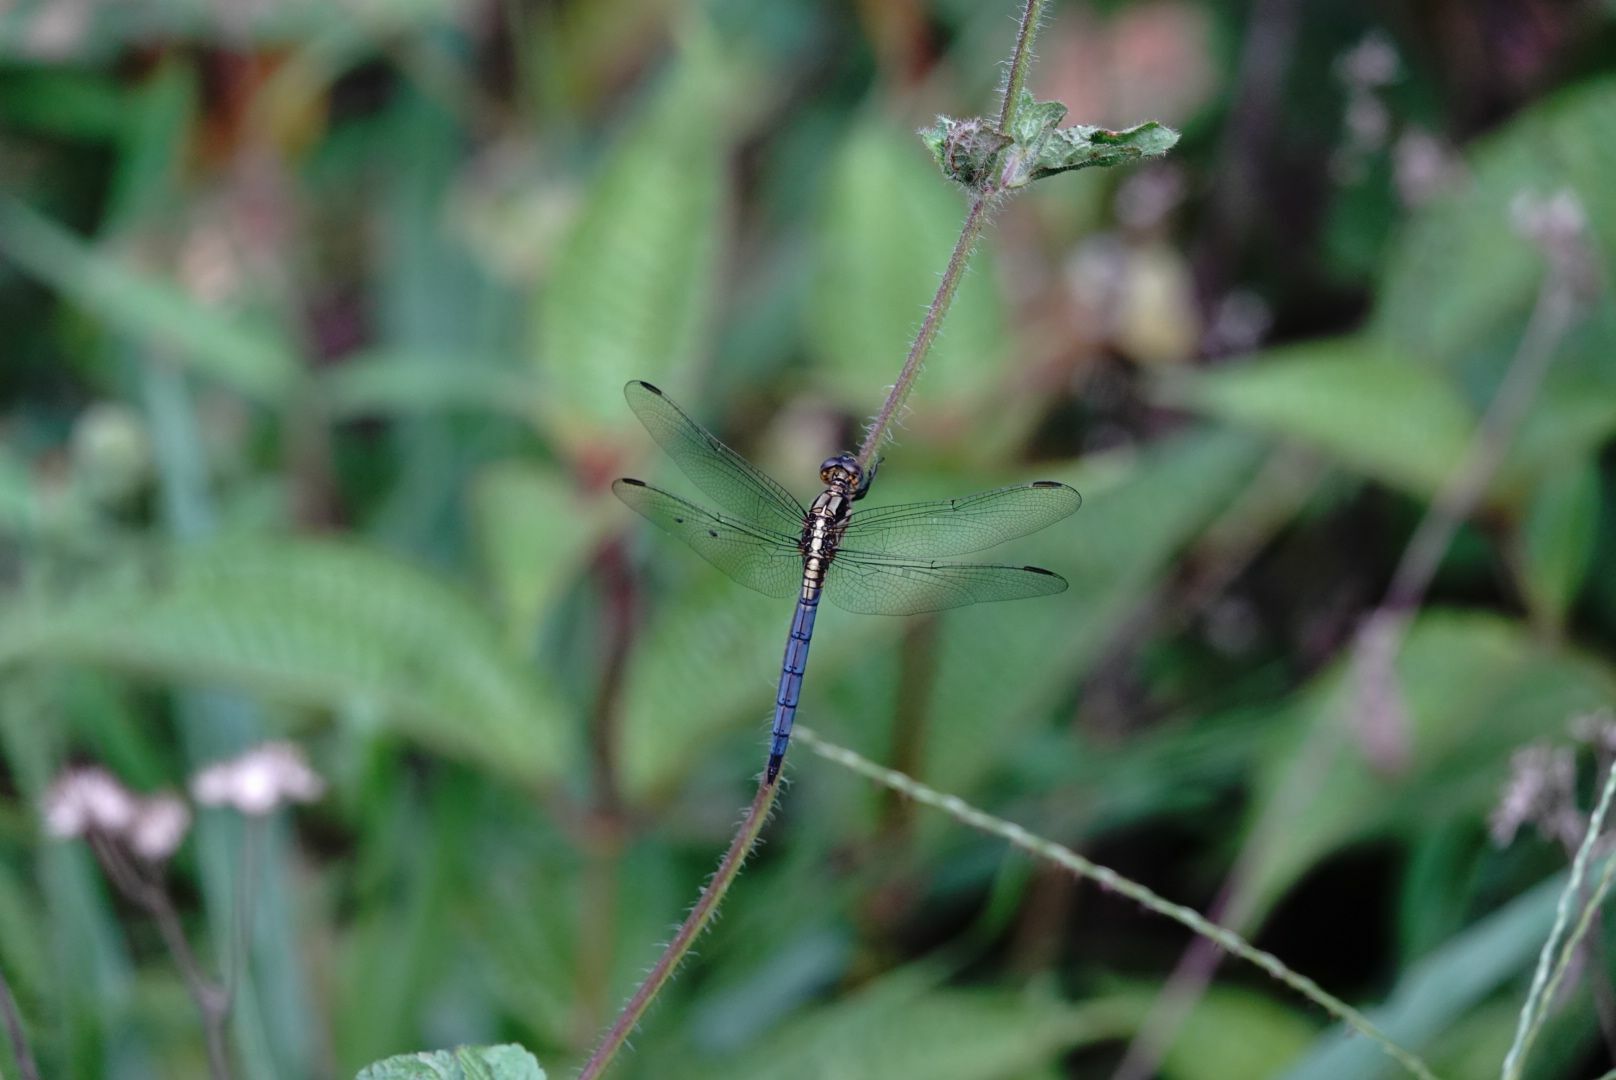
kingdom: Animalia
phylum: Arthropoda
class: Insecta
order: Odonata
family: Libellulidae
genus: Orthetrum
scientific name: Orthetrum luzonicum
